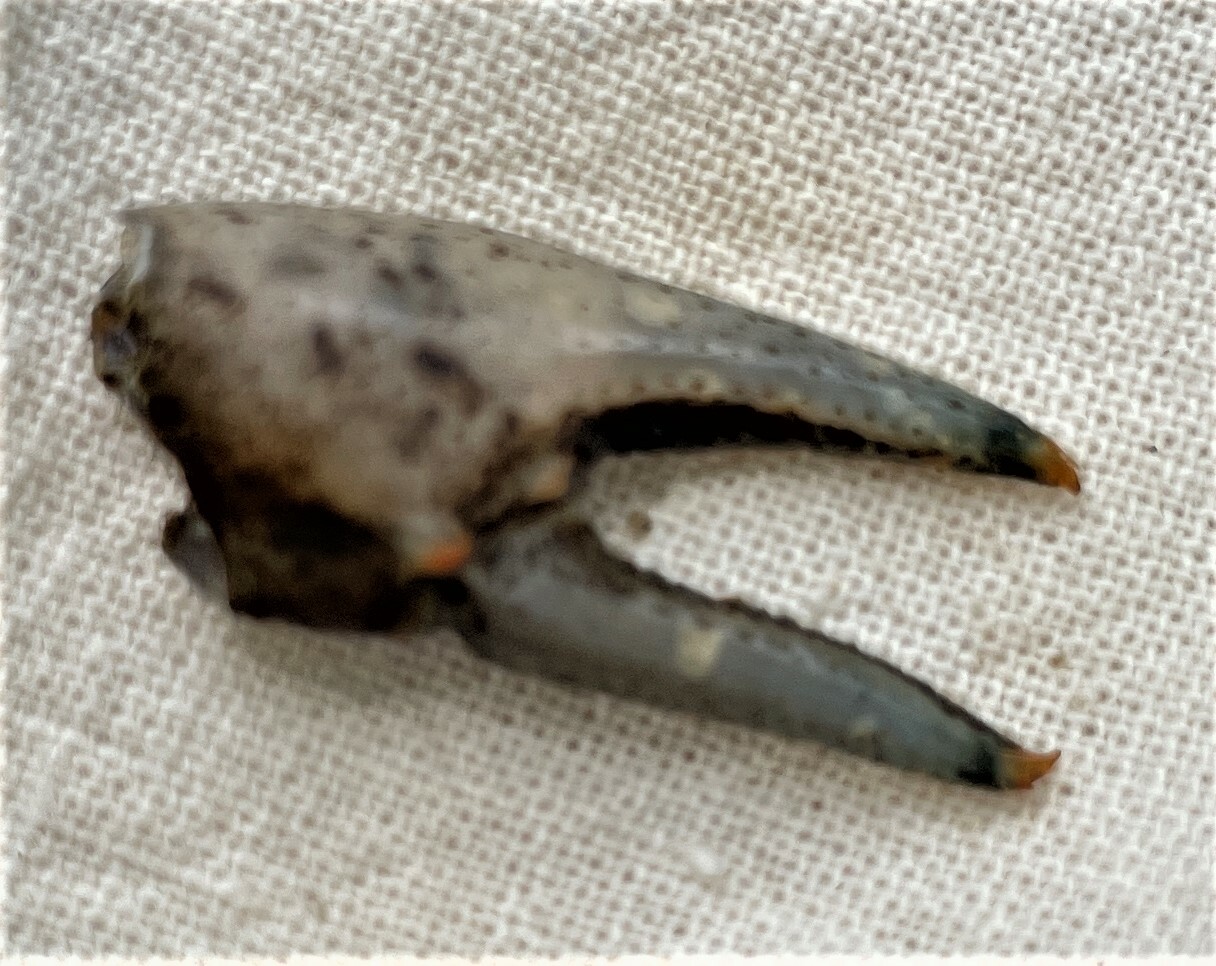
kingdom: Animalia
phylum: Arthropoda
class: Malacostraca
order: Decapoda
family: Cambaridae
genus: Faxonius
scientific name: Faxonius limosus
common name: American crayfish
